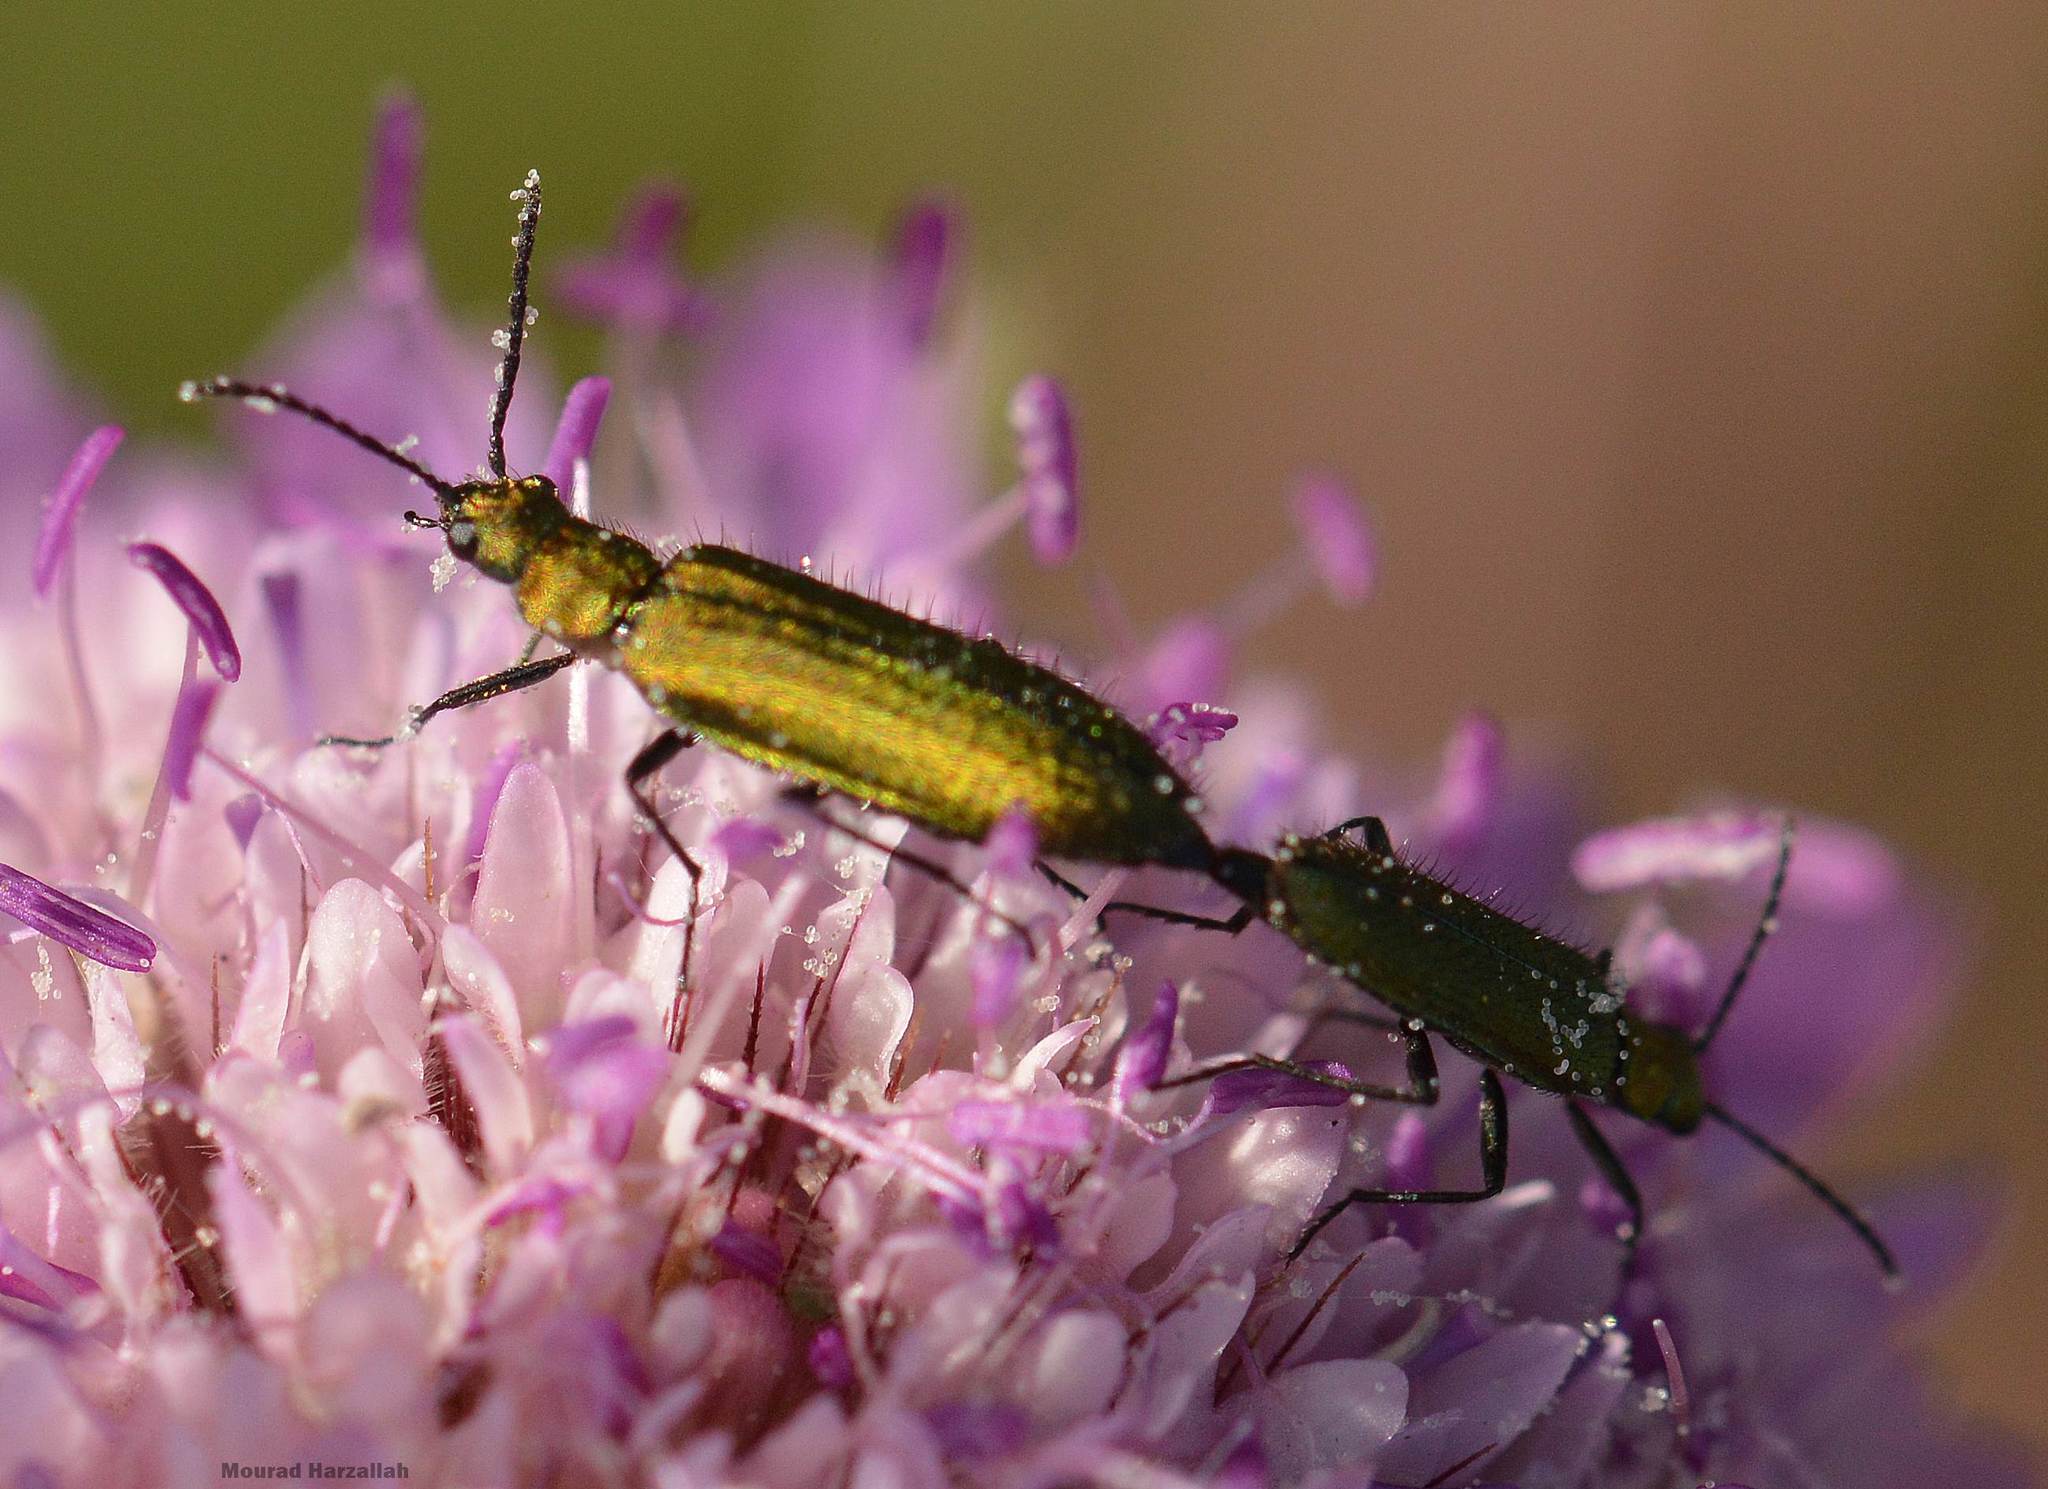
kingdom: Animalia
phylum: Arthropoda
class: Insecta
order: Coleoptera
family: Stenotrachelidae
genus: Stenotrachelus
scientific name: Stenotrachelus aeneus
